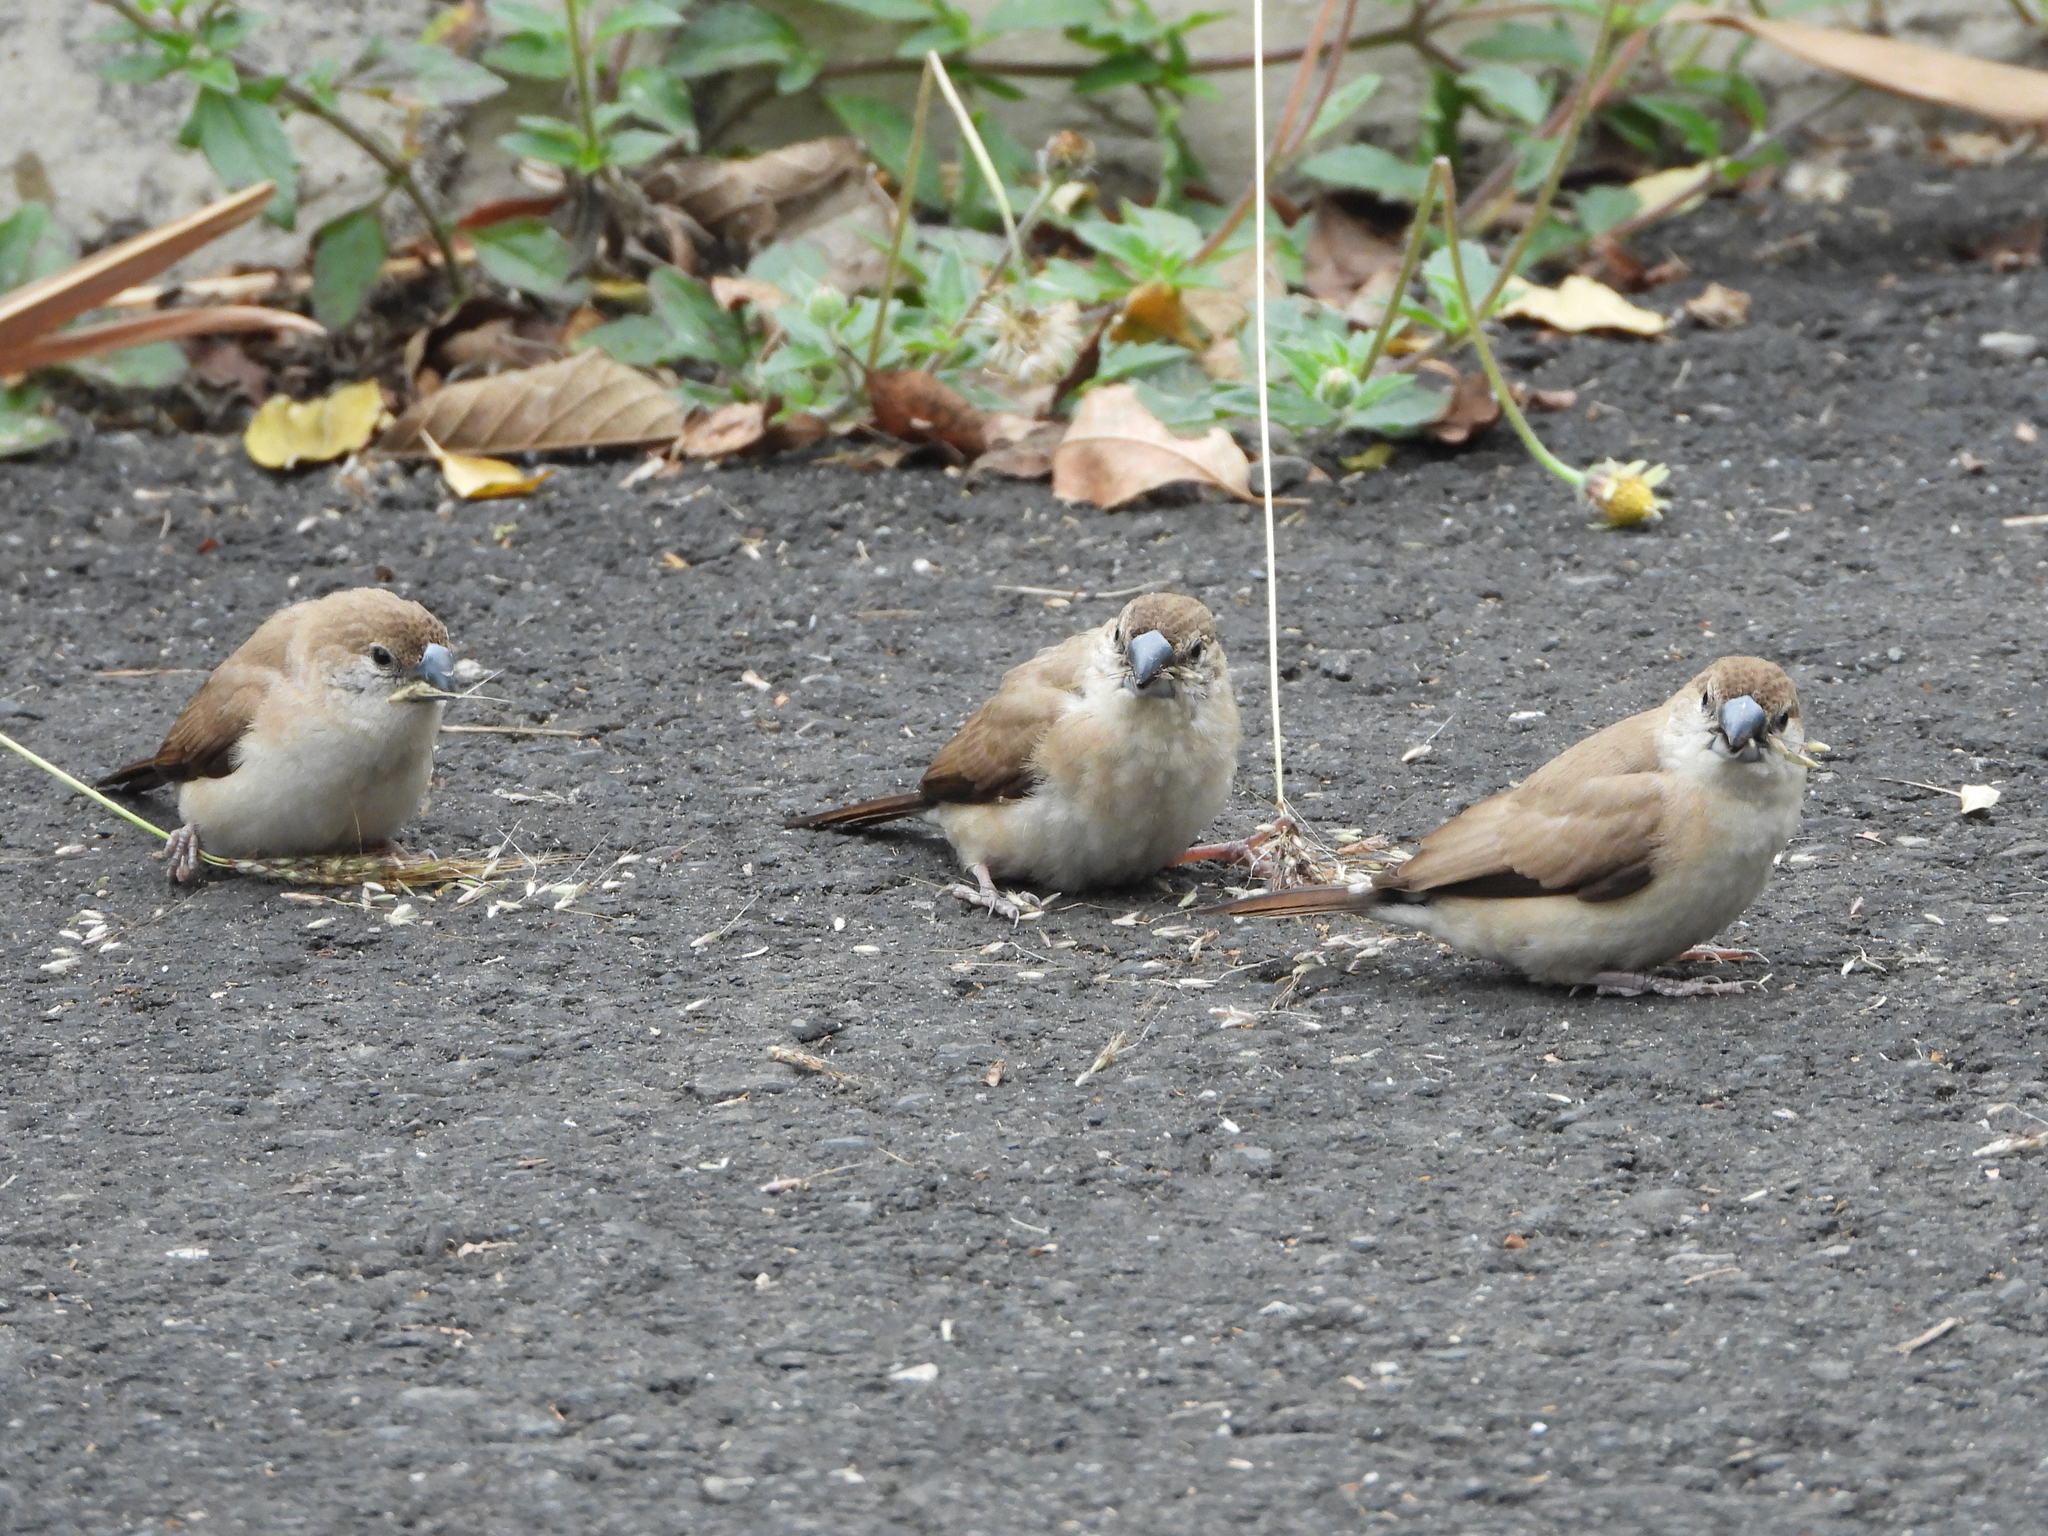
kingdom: Animalia
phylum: Chordata
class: Aves
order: Passeriformes
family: Estrildidae
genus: Euodice
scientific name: Euodice malabarica
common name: Indian silverbill
